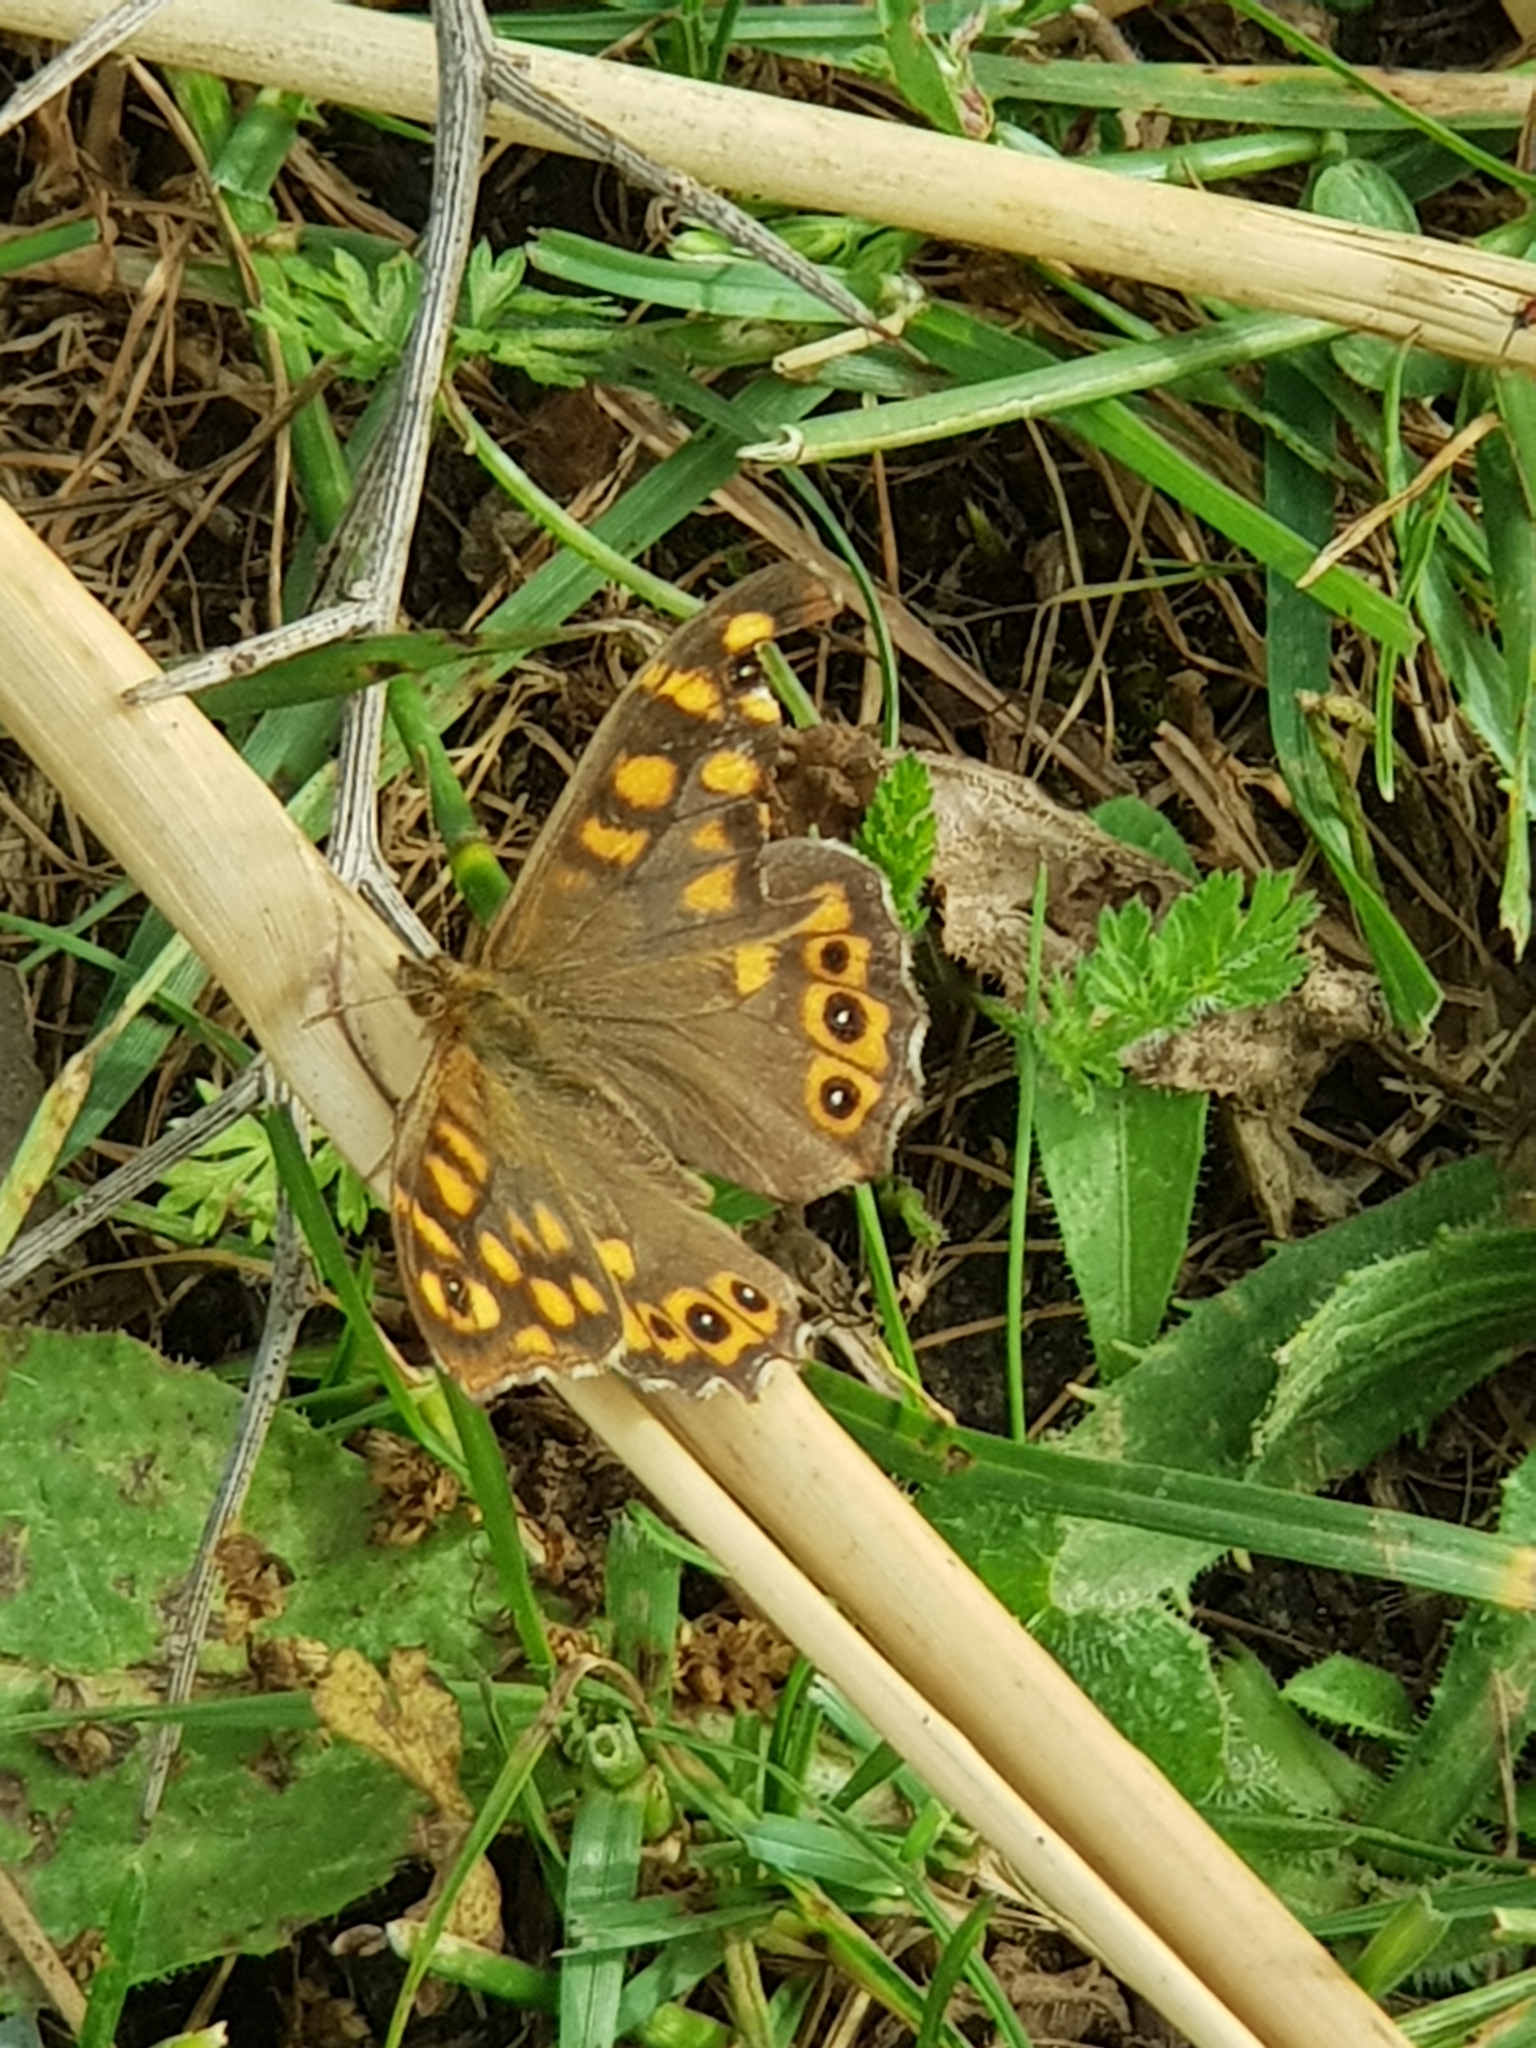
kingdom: Animalia
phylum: Arthropoda
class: Insecta
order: Lepidoptera
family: Nymphalidae
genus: Pararge
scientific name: Pararge aegeria
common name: Speckled wood
